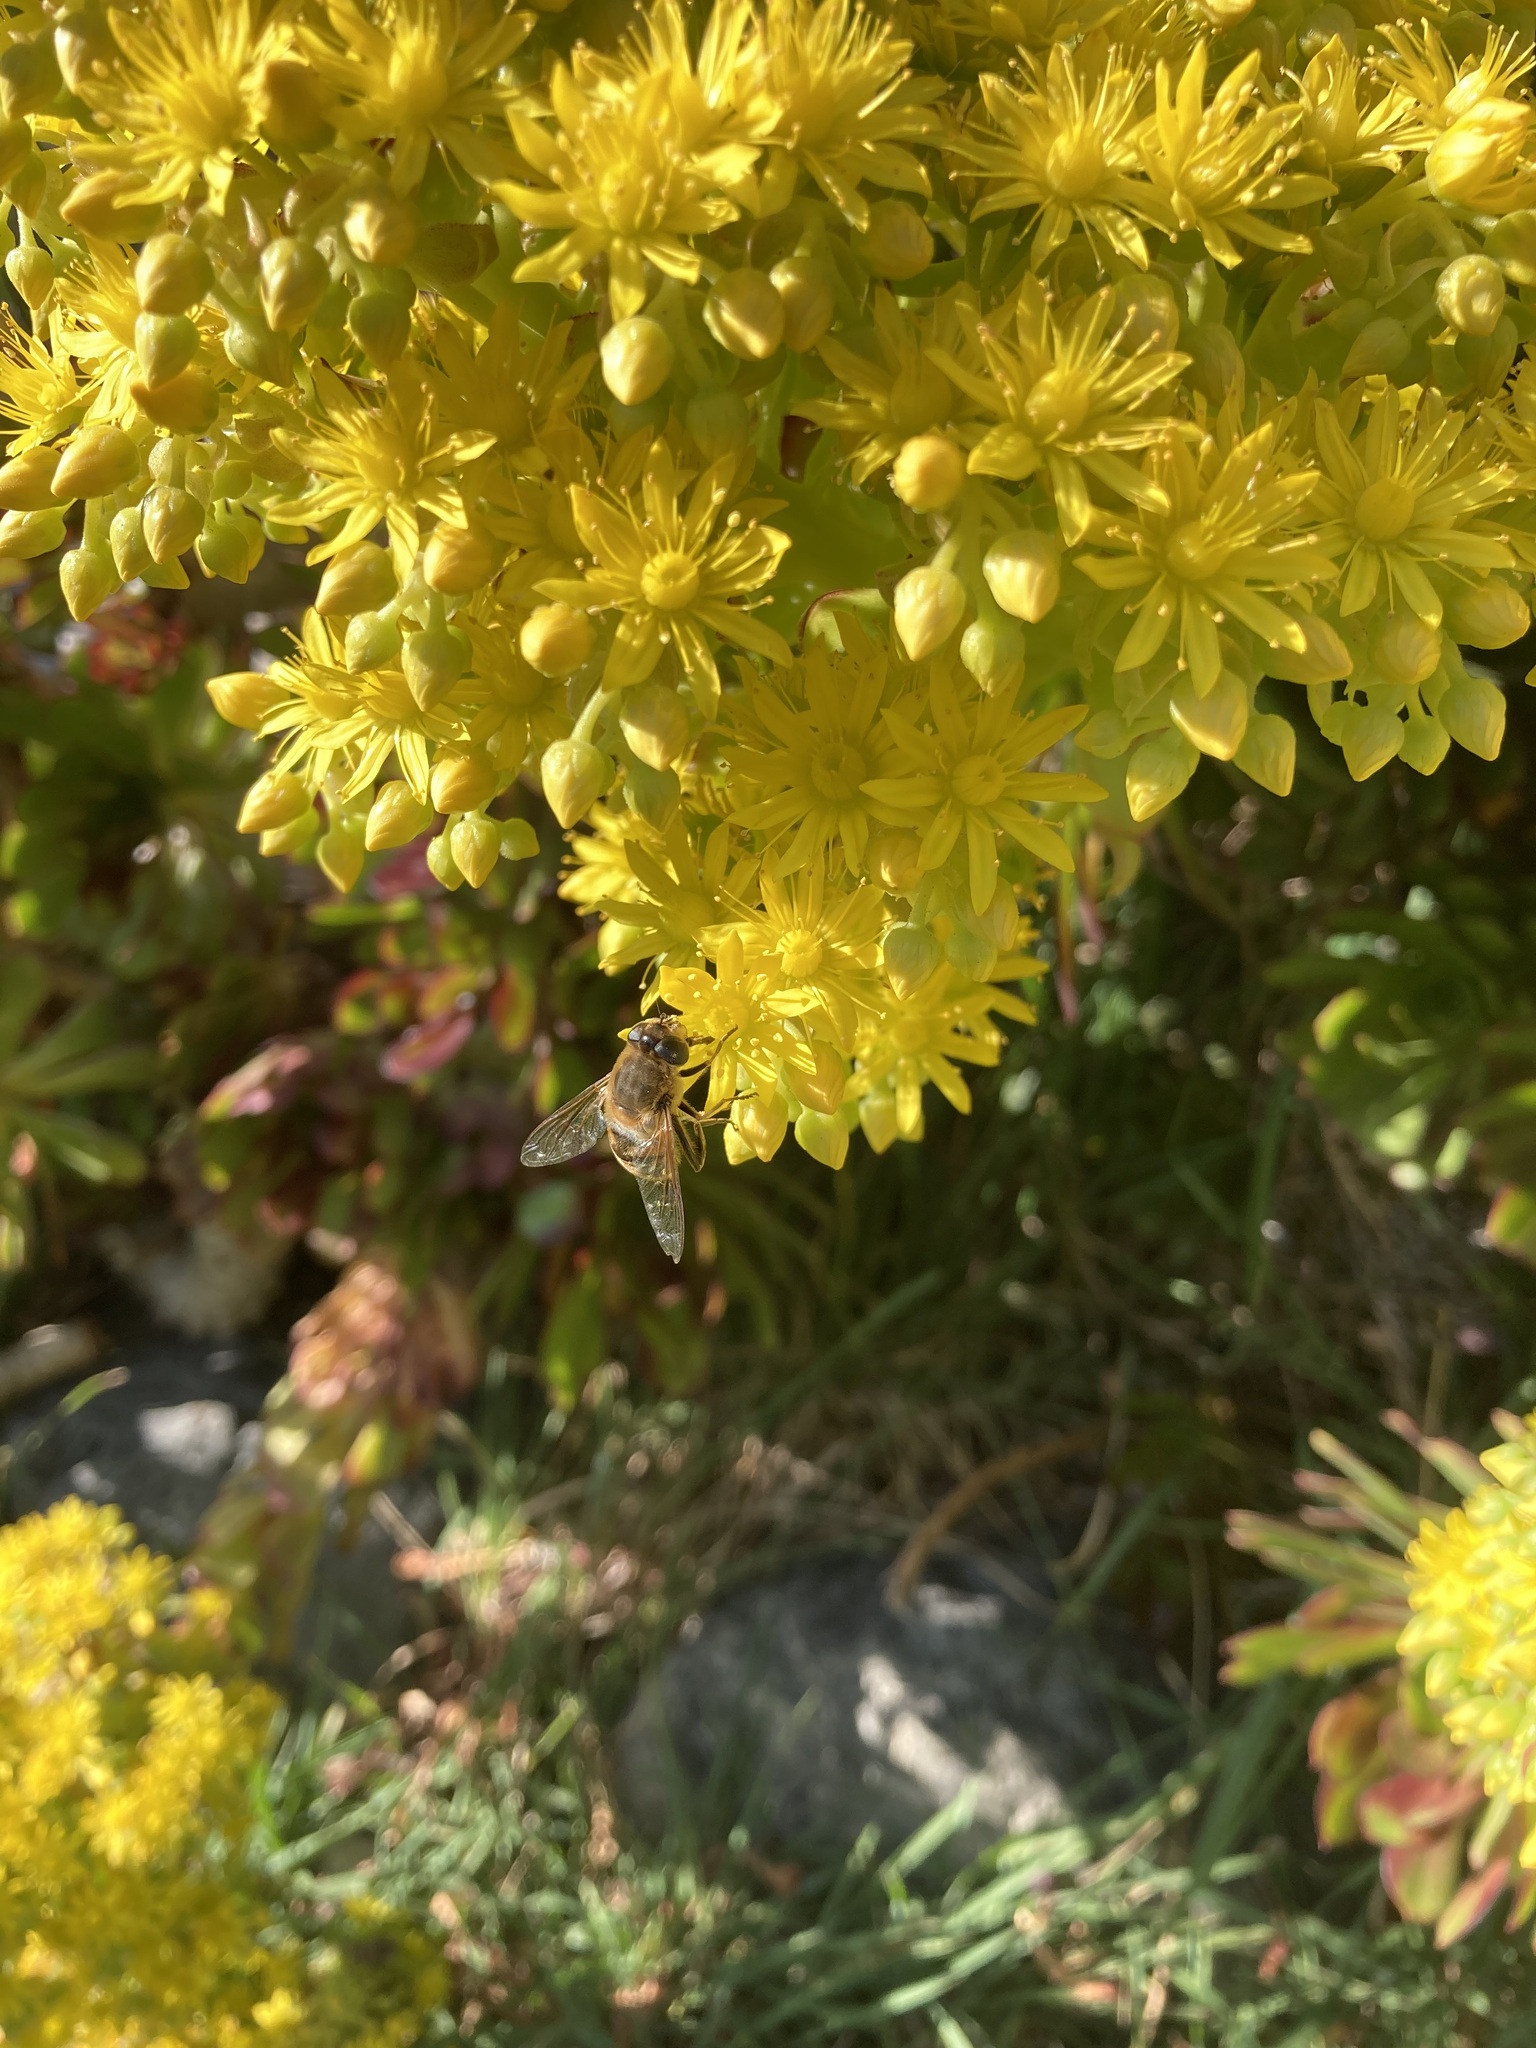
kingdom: Animalia
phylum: Arthropoda
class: Insecta
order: Hymenoptera
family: Apidae
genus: Apis
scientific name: Apis mellifera
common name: Honey bee
